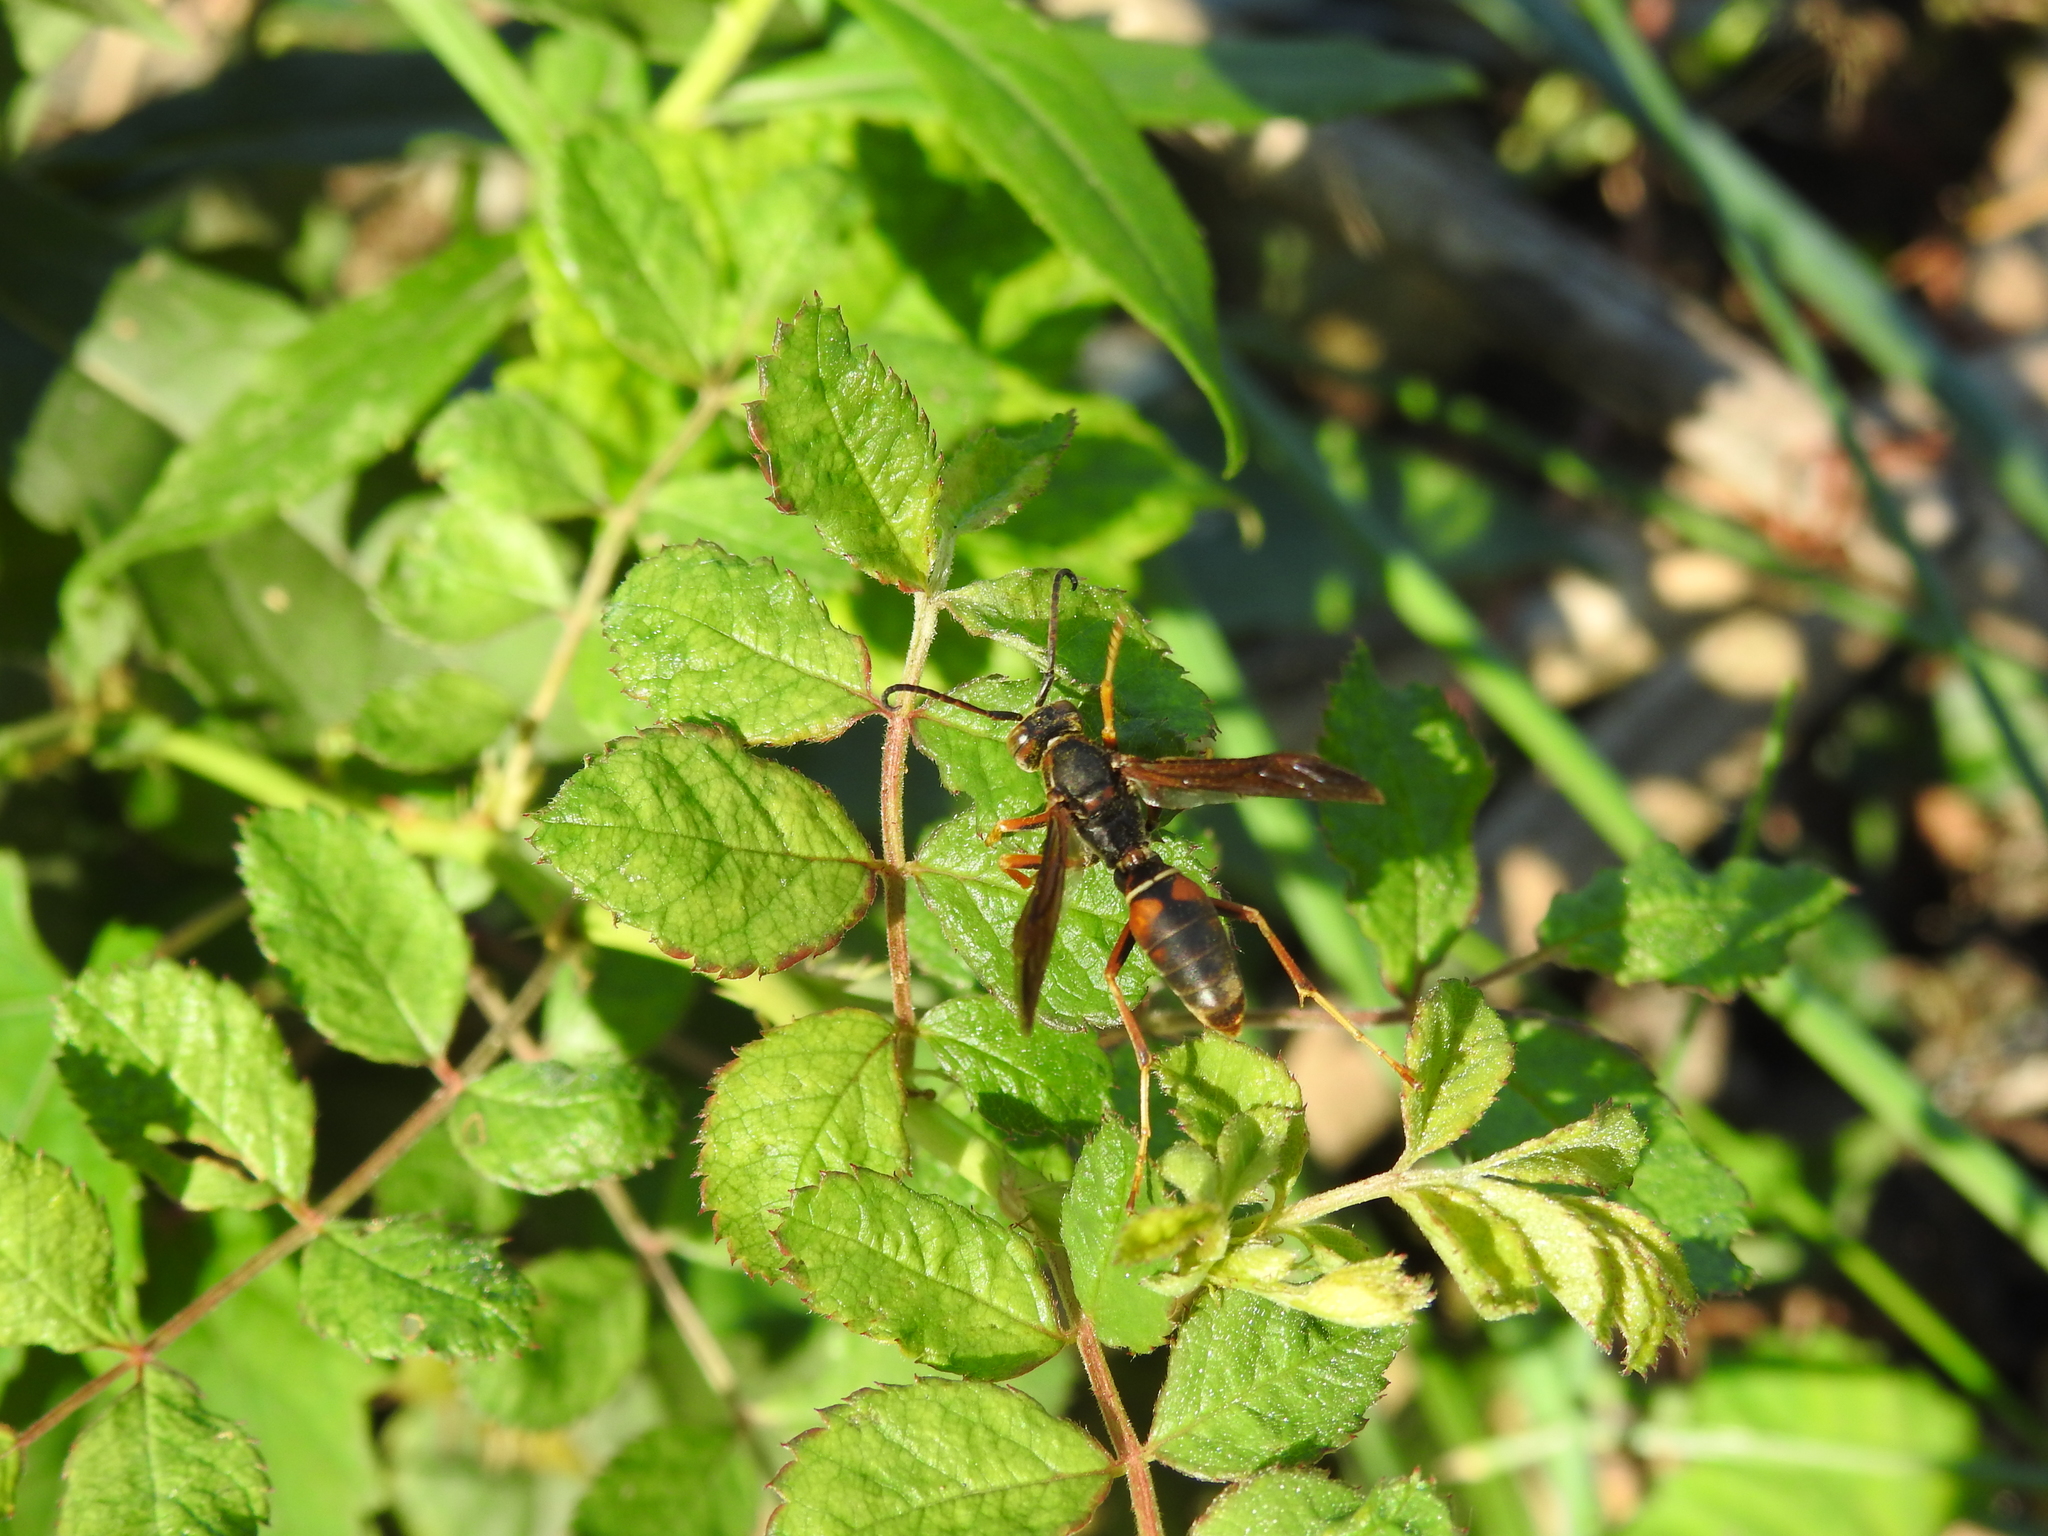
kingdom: Animalia
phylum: Arthropoda
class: Insecta
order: Hymenoptera
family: Eumenidae
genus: Polistes
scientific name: Polistes fuscatus
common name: Dark paper wasp
